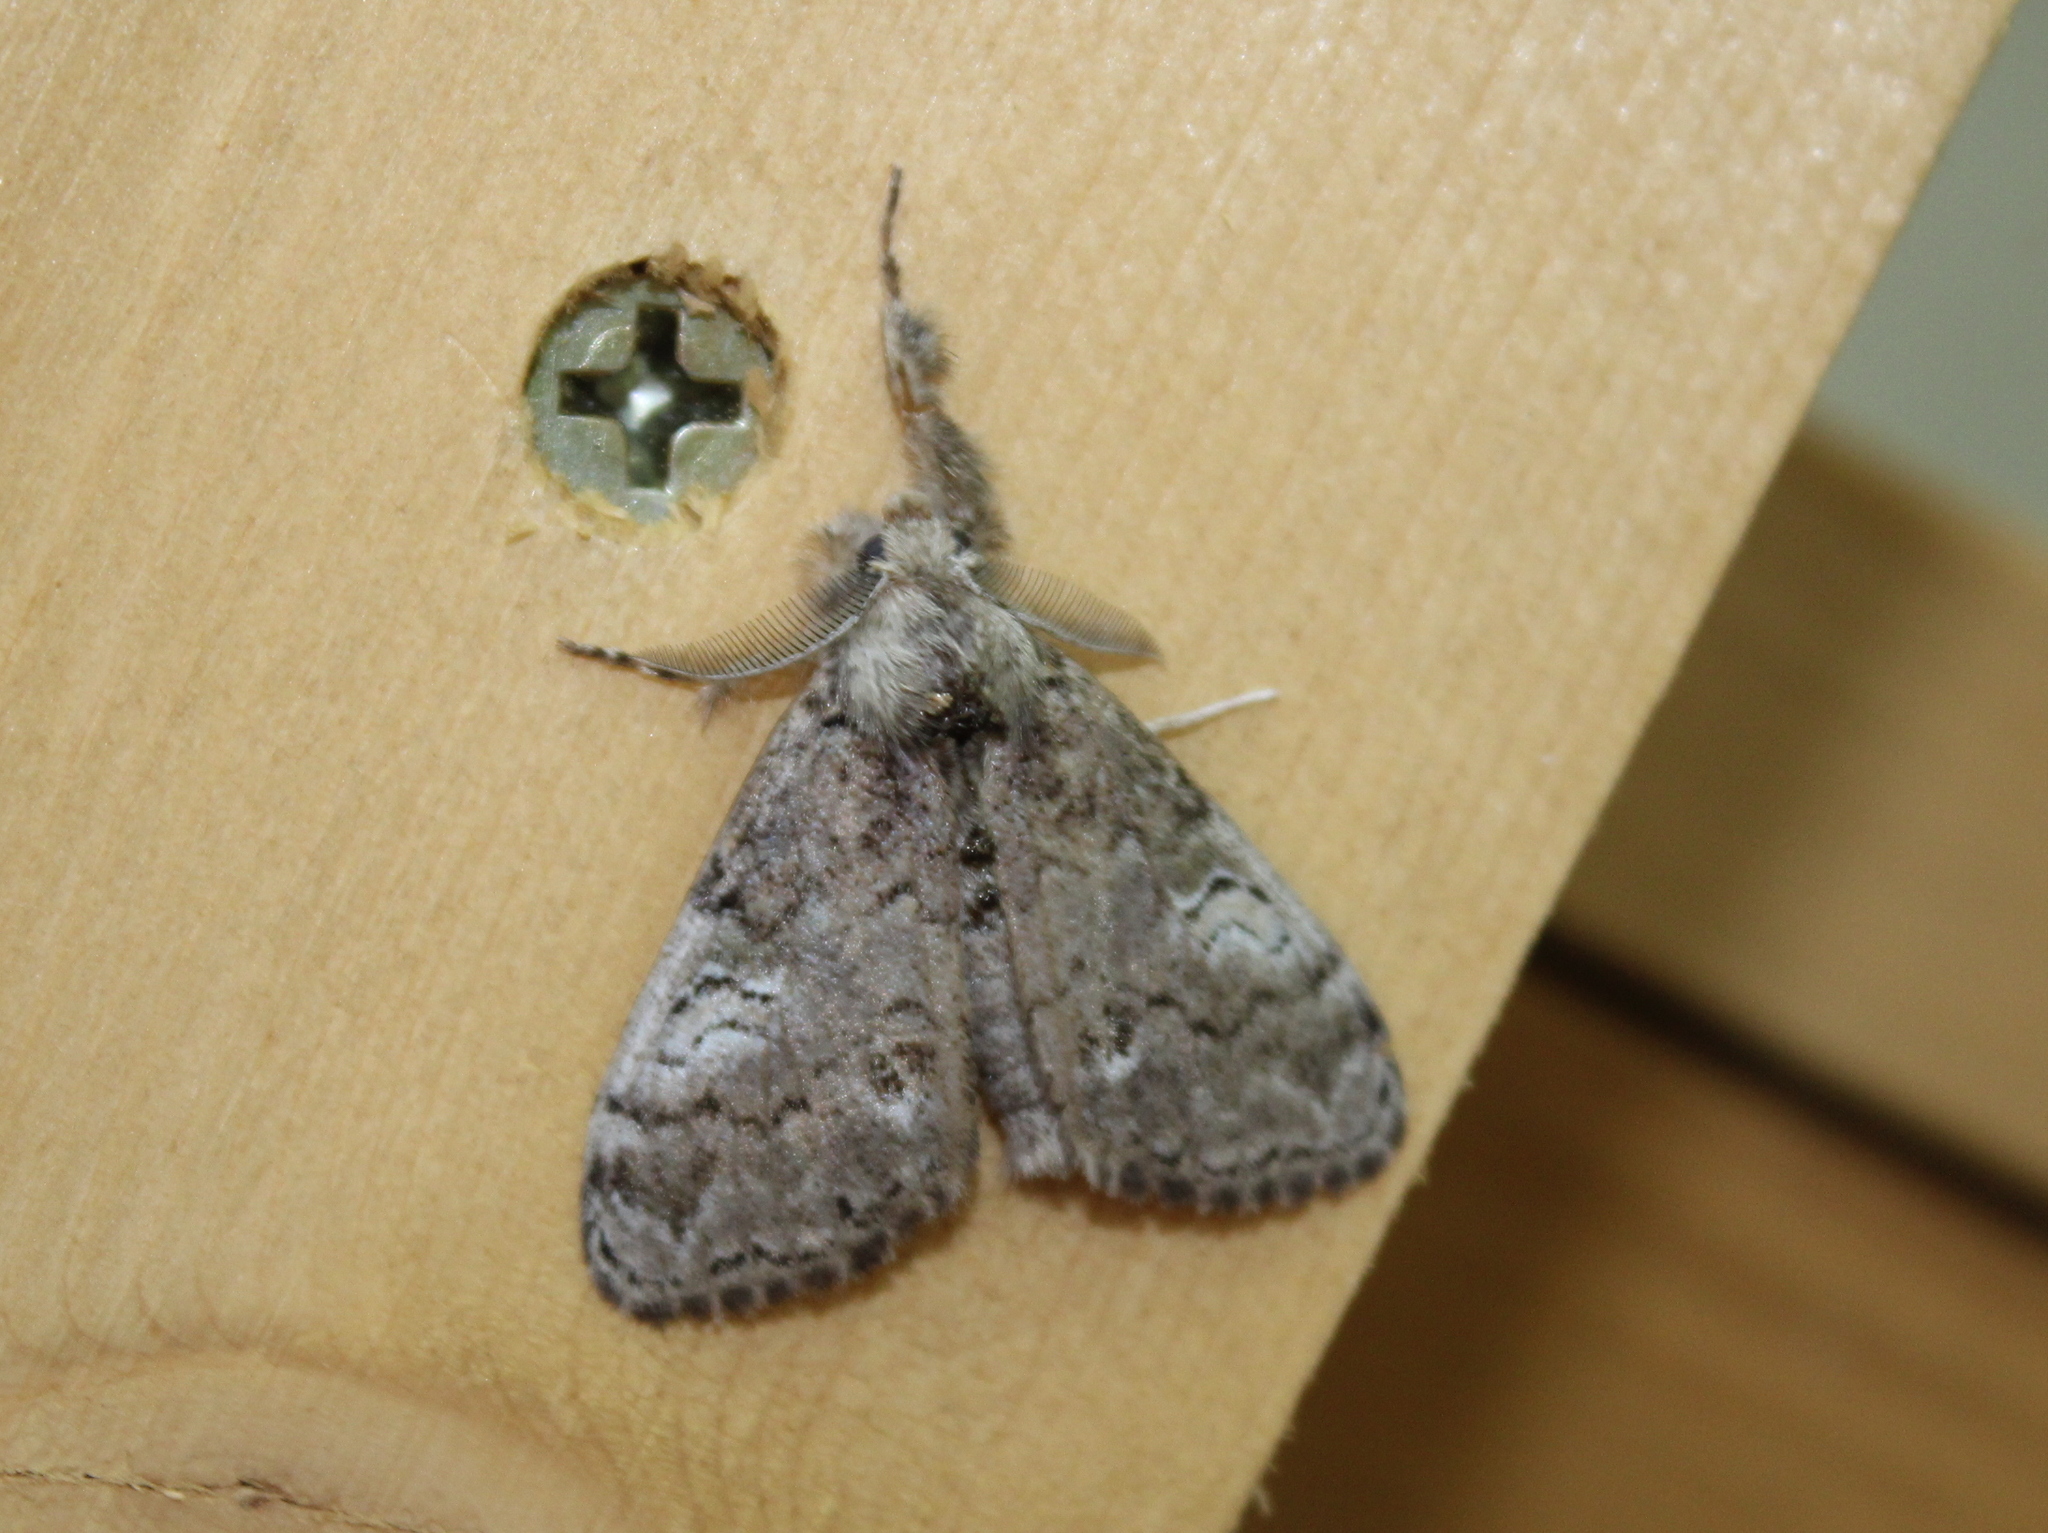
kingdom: Animalia
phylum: Arthropoda
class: Insecta
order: Lepidoptera
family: Erebidae
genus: Orgyia
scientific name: Orgyia leucostigma
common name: White-marked tussock moth
